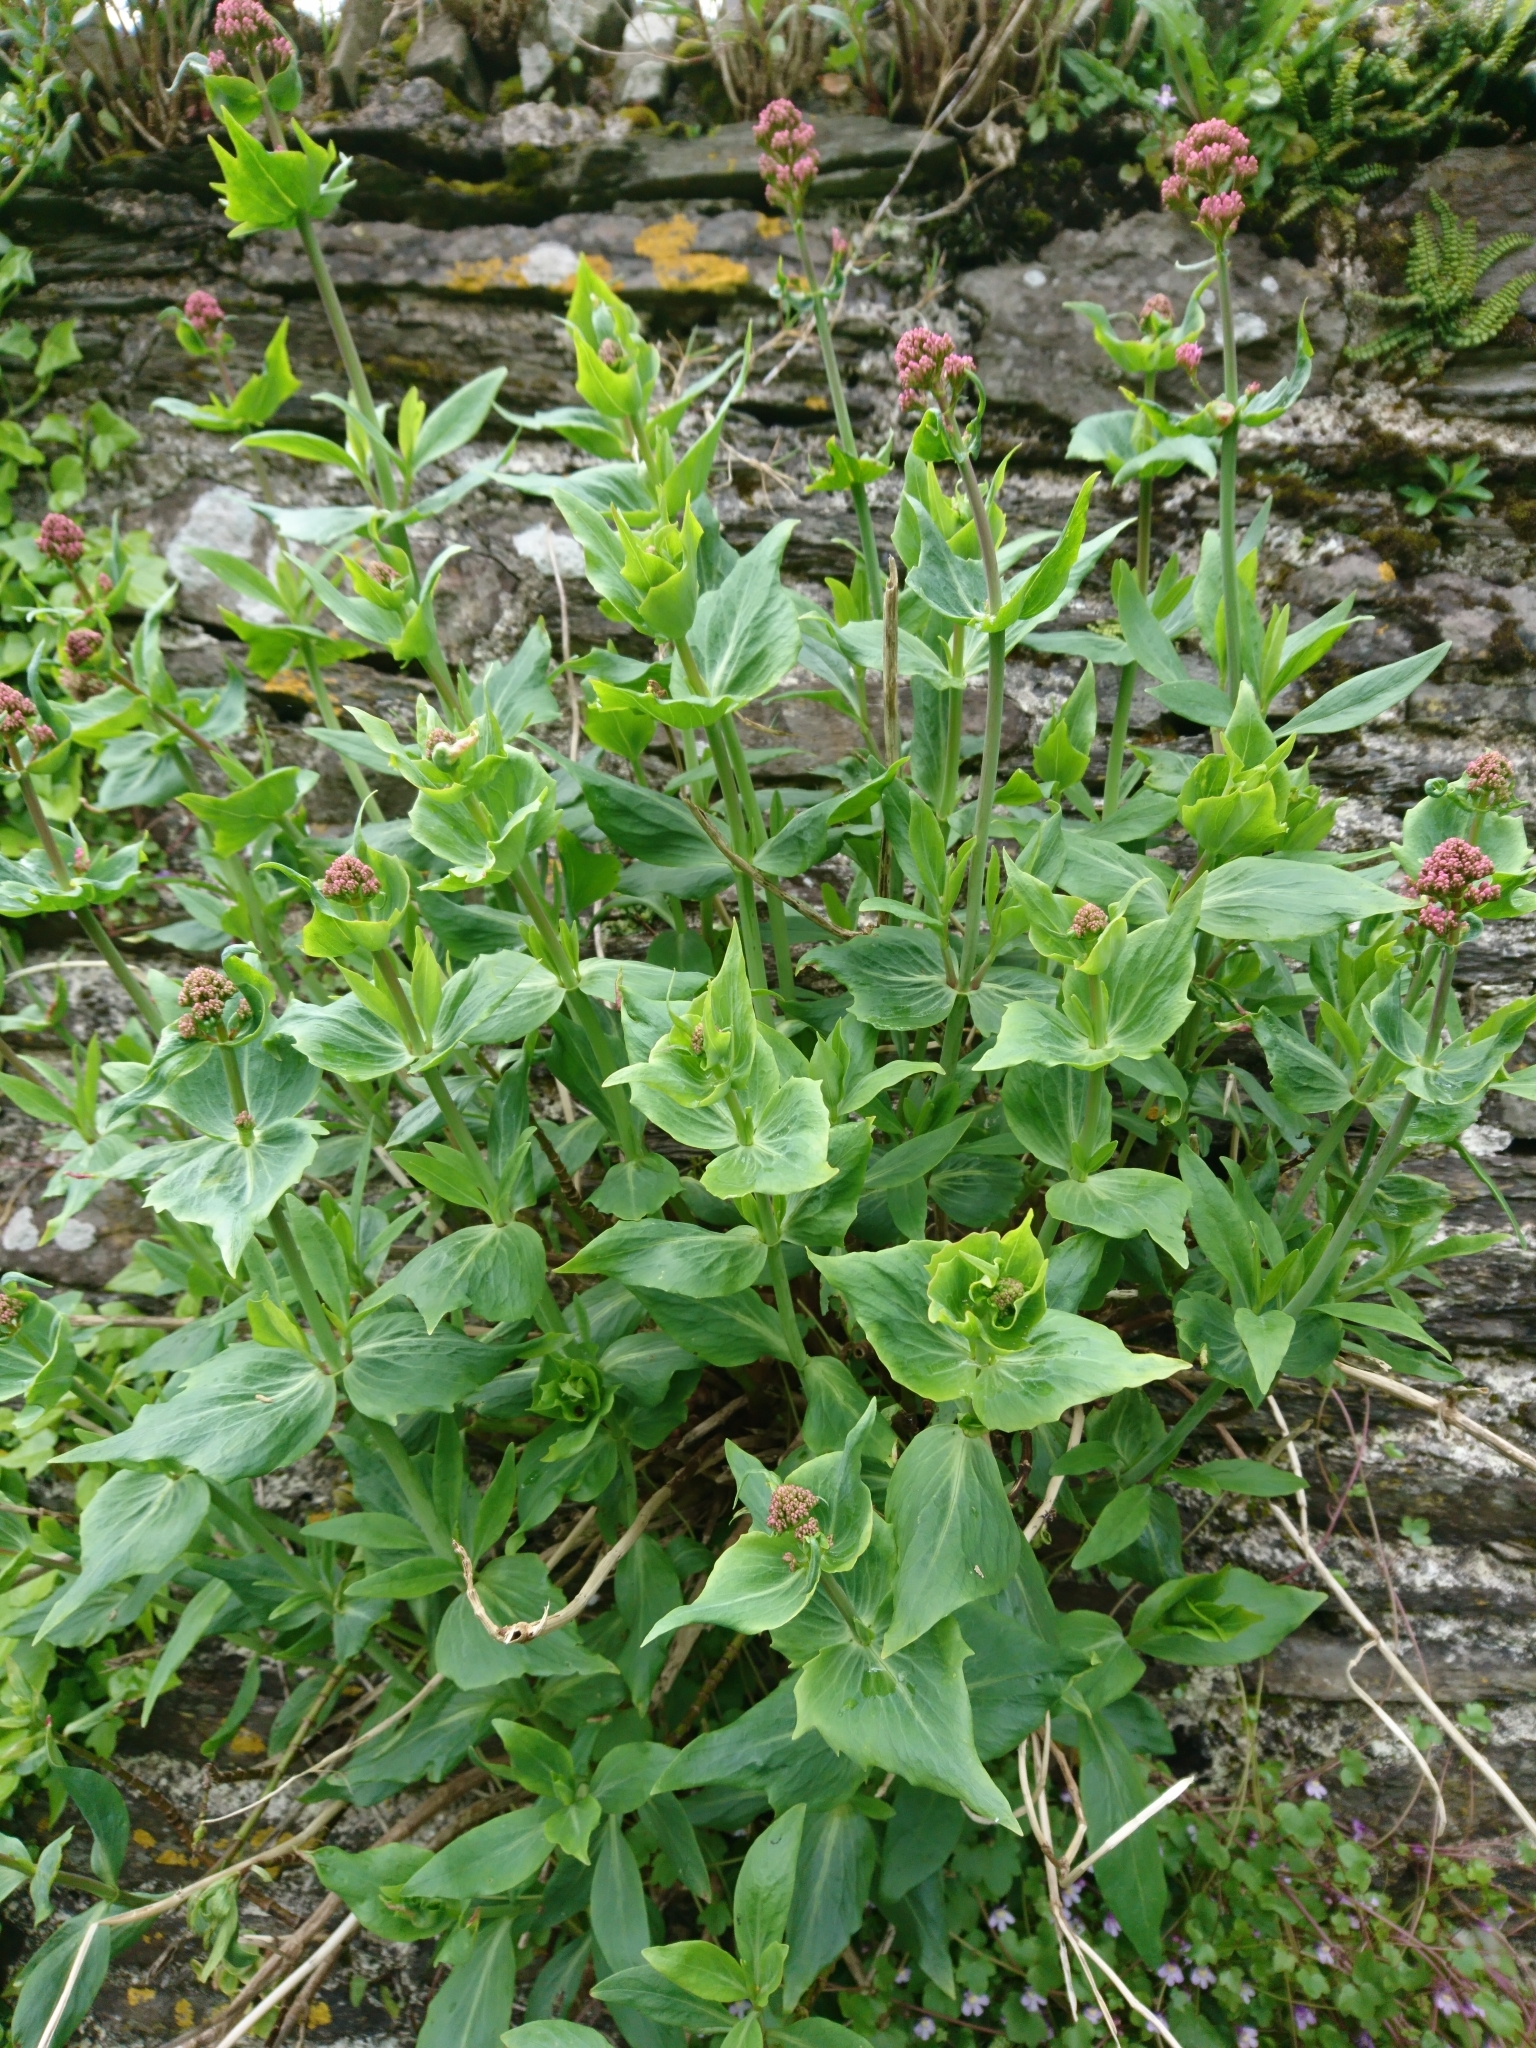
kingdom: Plantae
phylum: Tracheophyta
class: Magnoliopsida
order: Dipsacales
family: Caprifoliaceae
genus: Centranthus
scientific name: Centranthus ruber
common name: Red valerian
